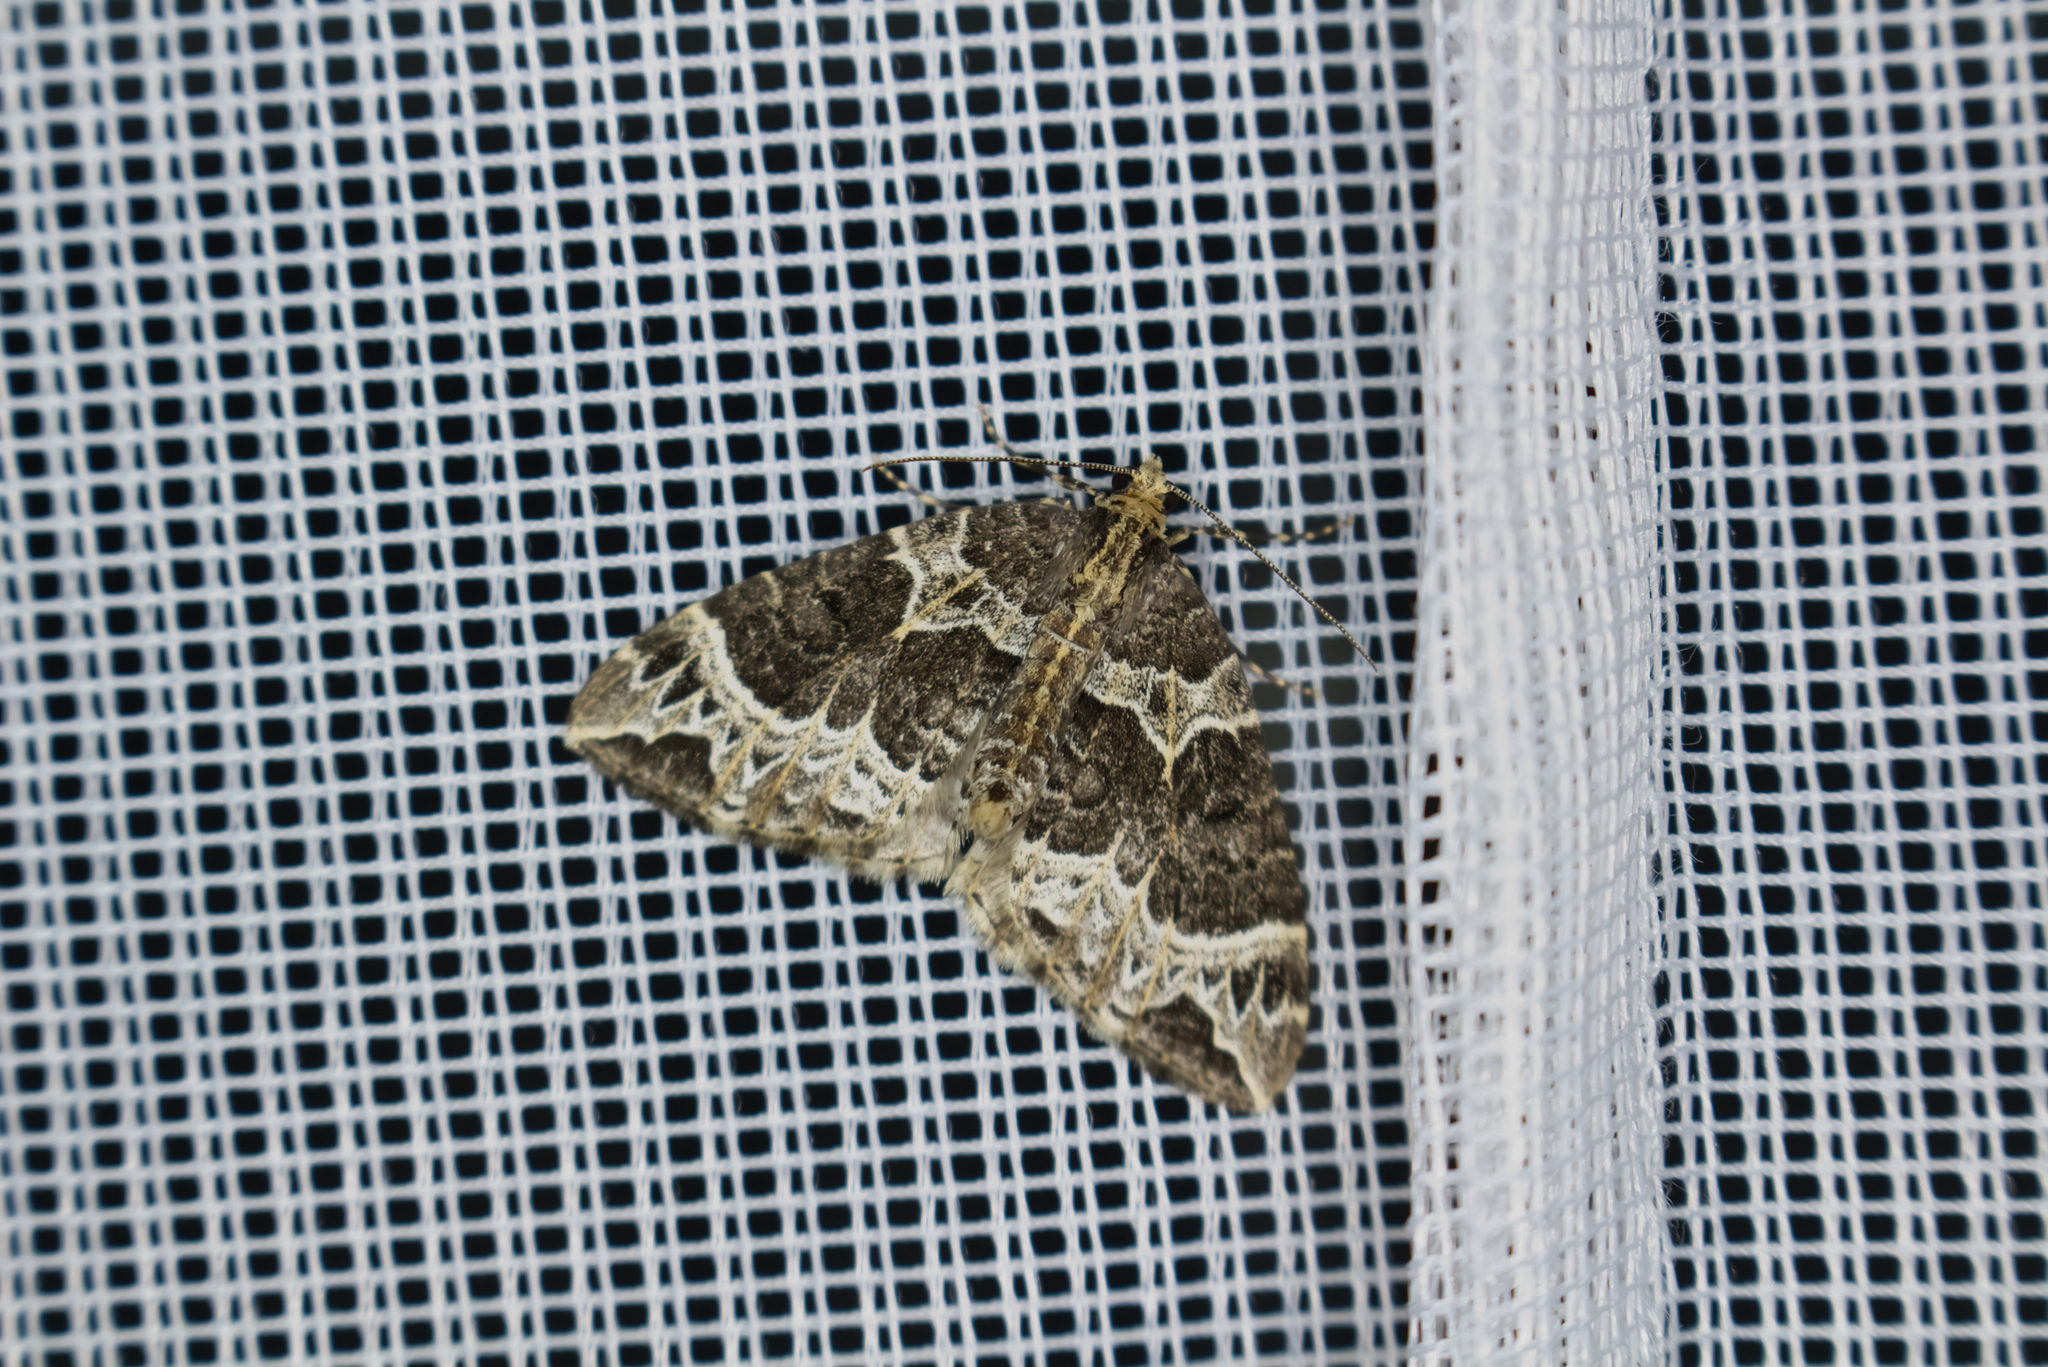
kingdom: Animalia
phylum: Arthropoda
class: Insecta
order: Lepidoptera
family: Geometridae
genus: Ecliptopera
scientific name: Ecliptopera silaceata
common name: Small phoenix
